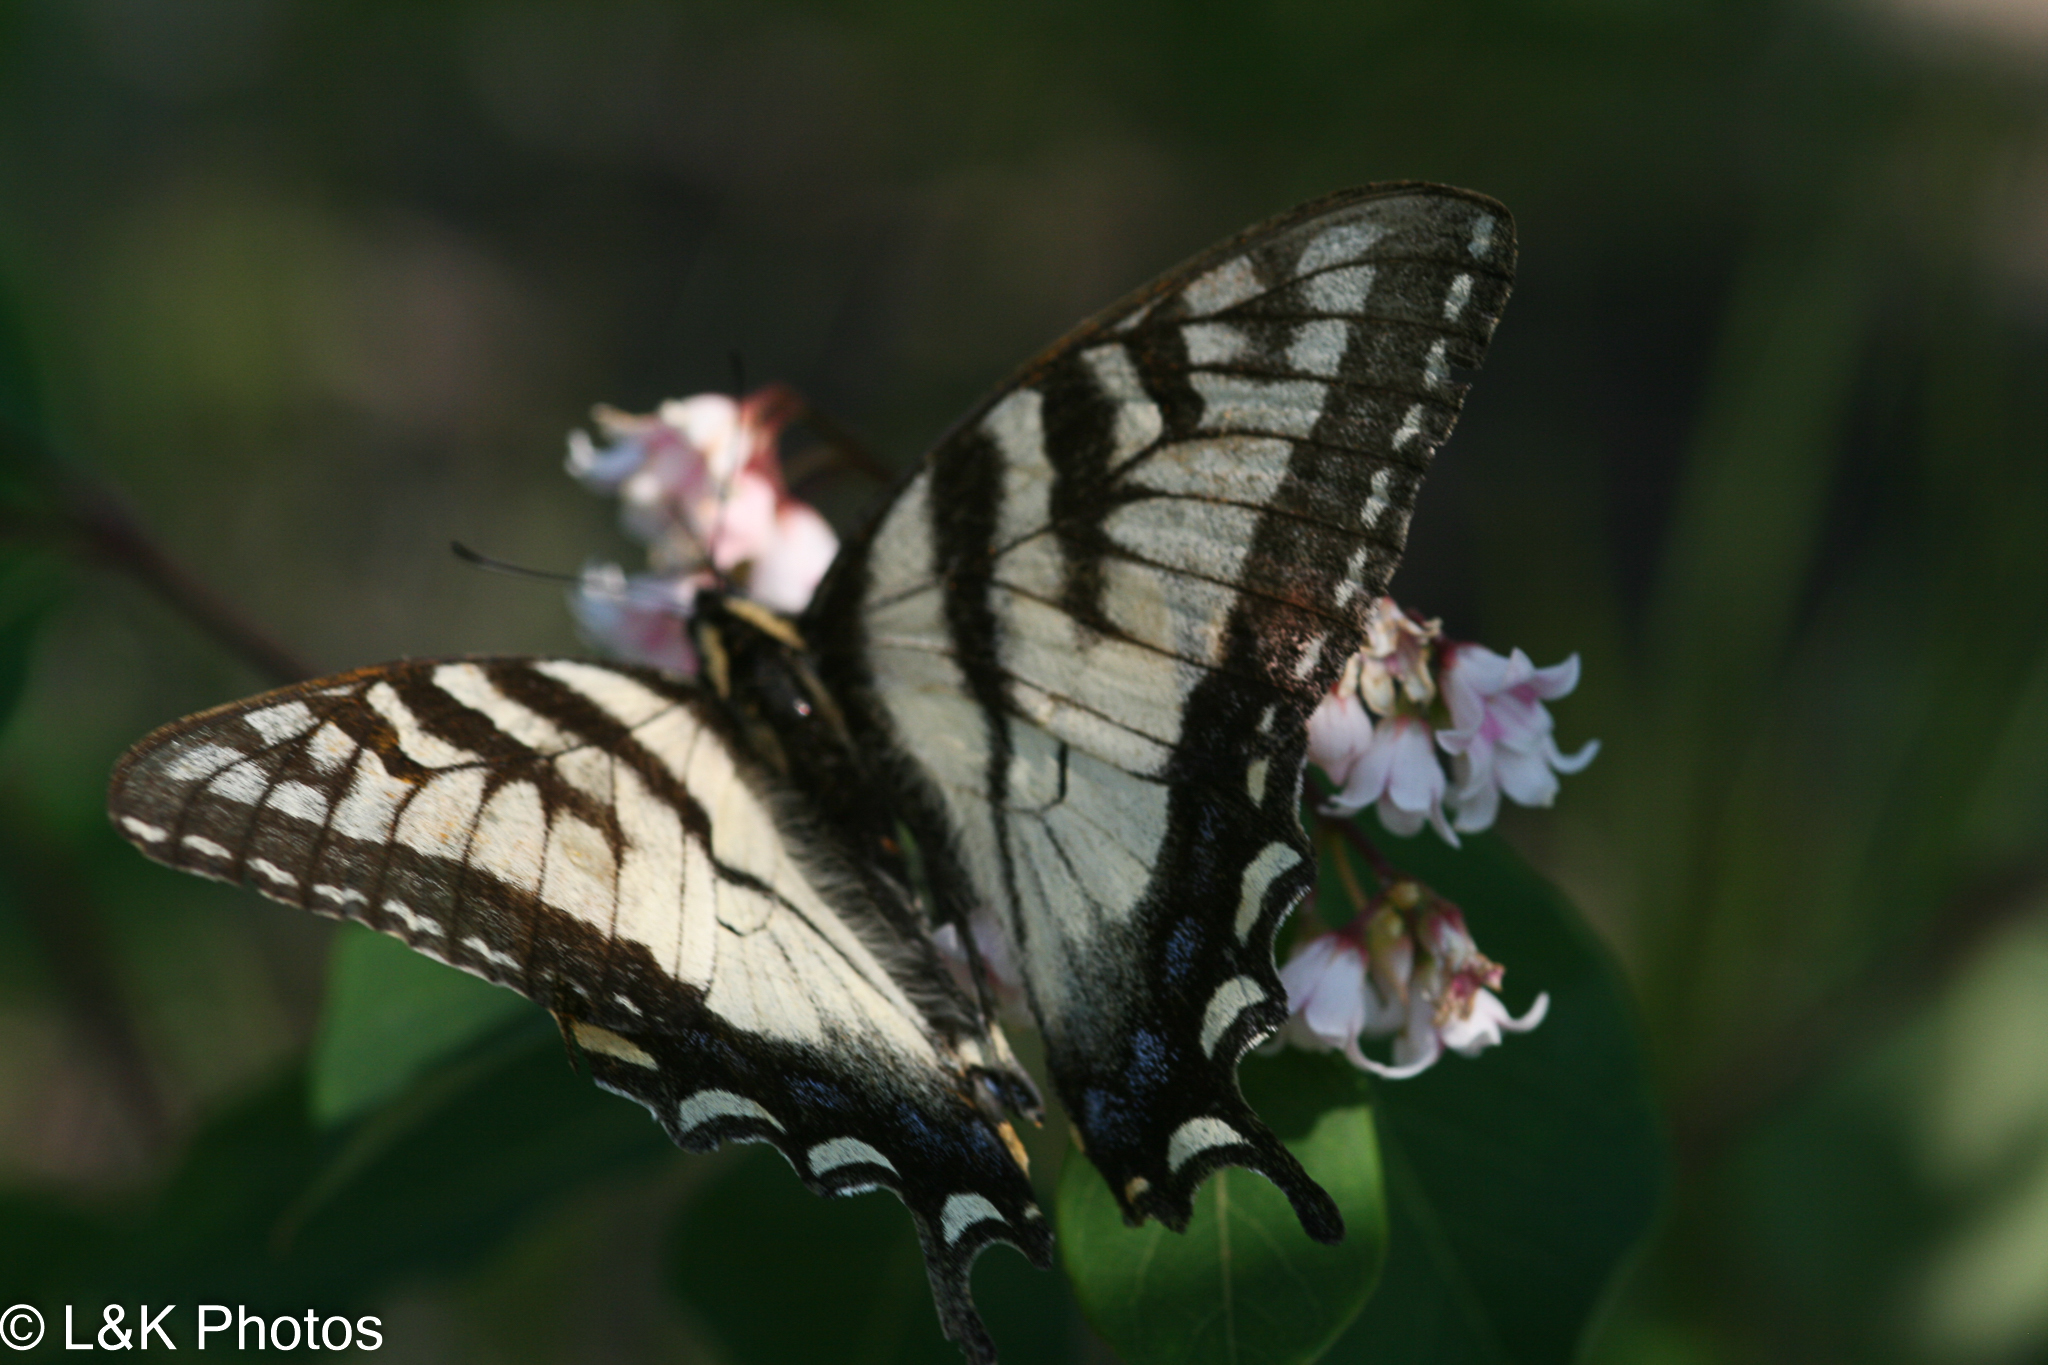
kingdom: Animalia
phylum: Arthropoda
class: Insecta
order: Lepidoptera
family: Papilionidae
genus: Papilio
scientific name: Papilio canadensis
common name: Canadian tiger swallowtail
